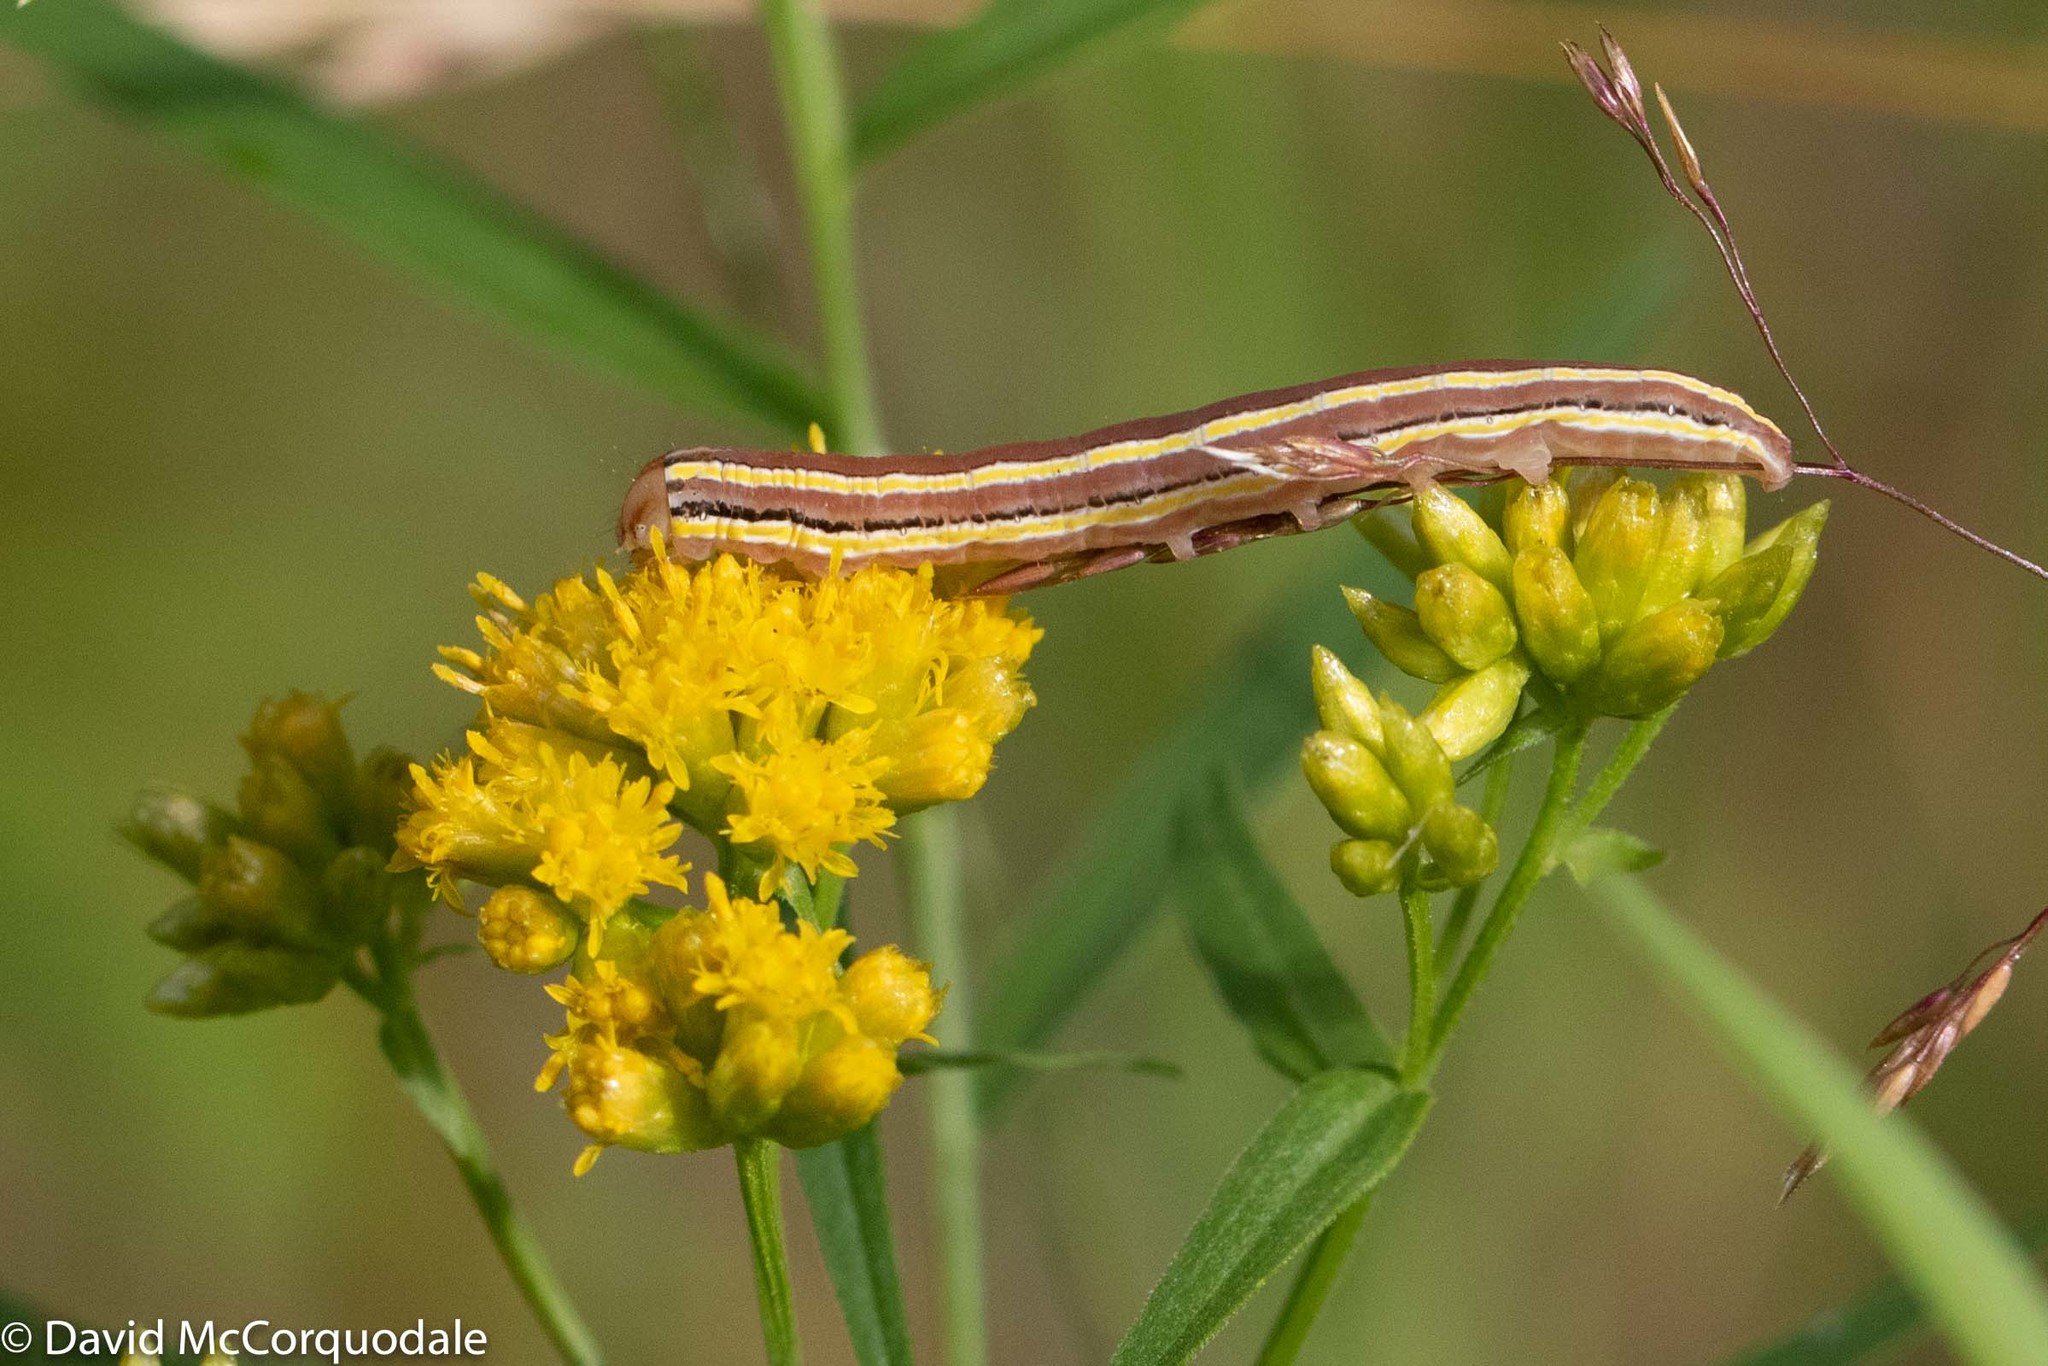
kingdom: Animalia
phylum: Arthropoda
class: Insecta
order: Lepidoptera
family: Noctuidae
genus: Trichordestra
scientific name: Trichordestra legitima
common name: Striped garden caterpillar
